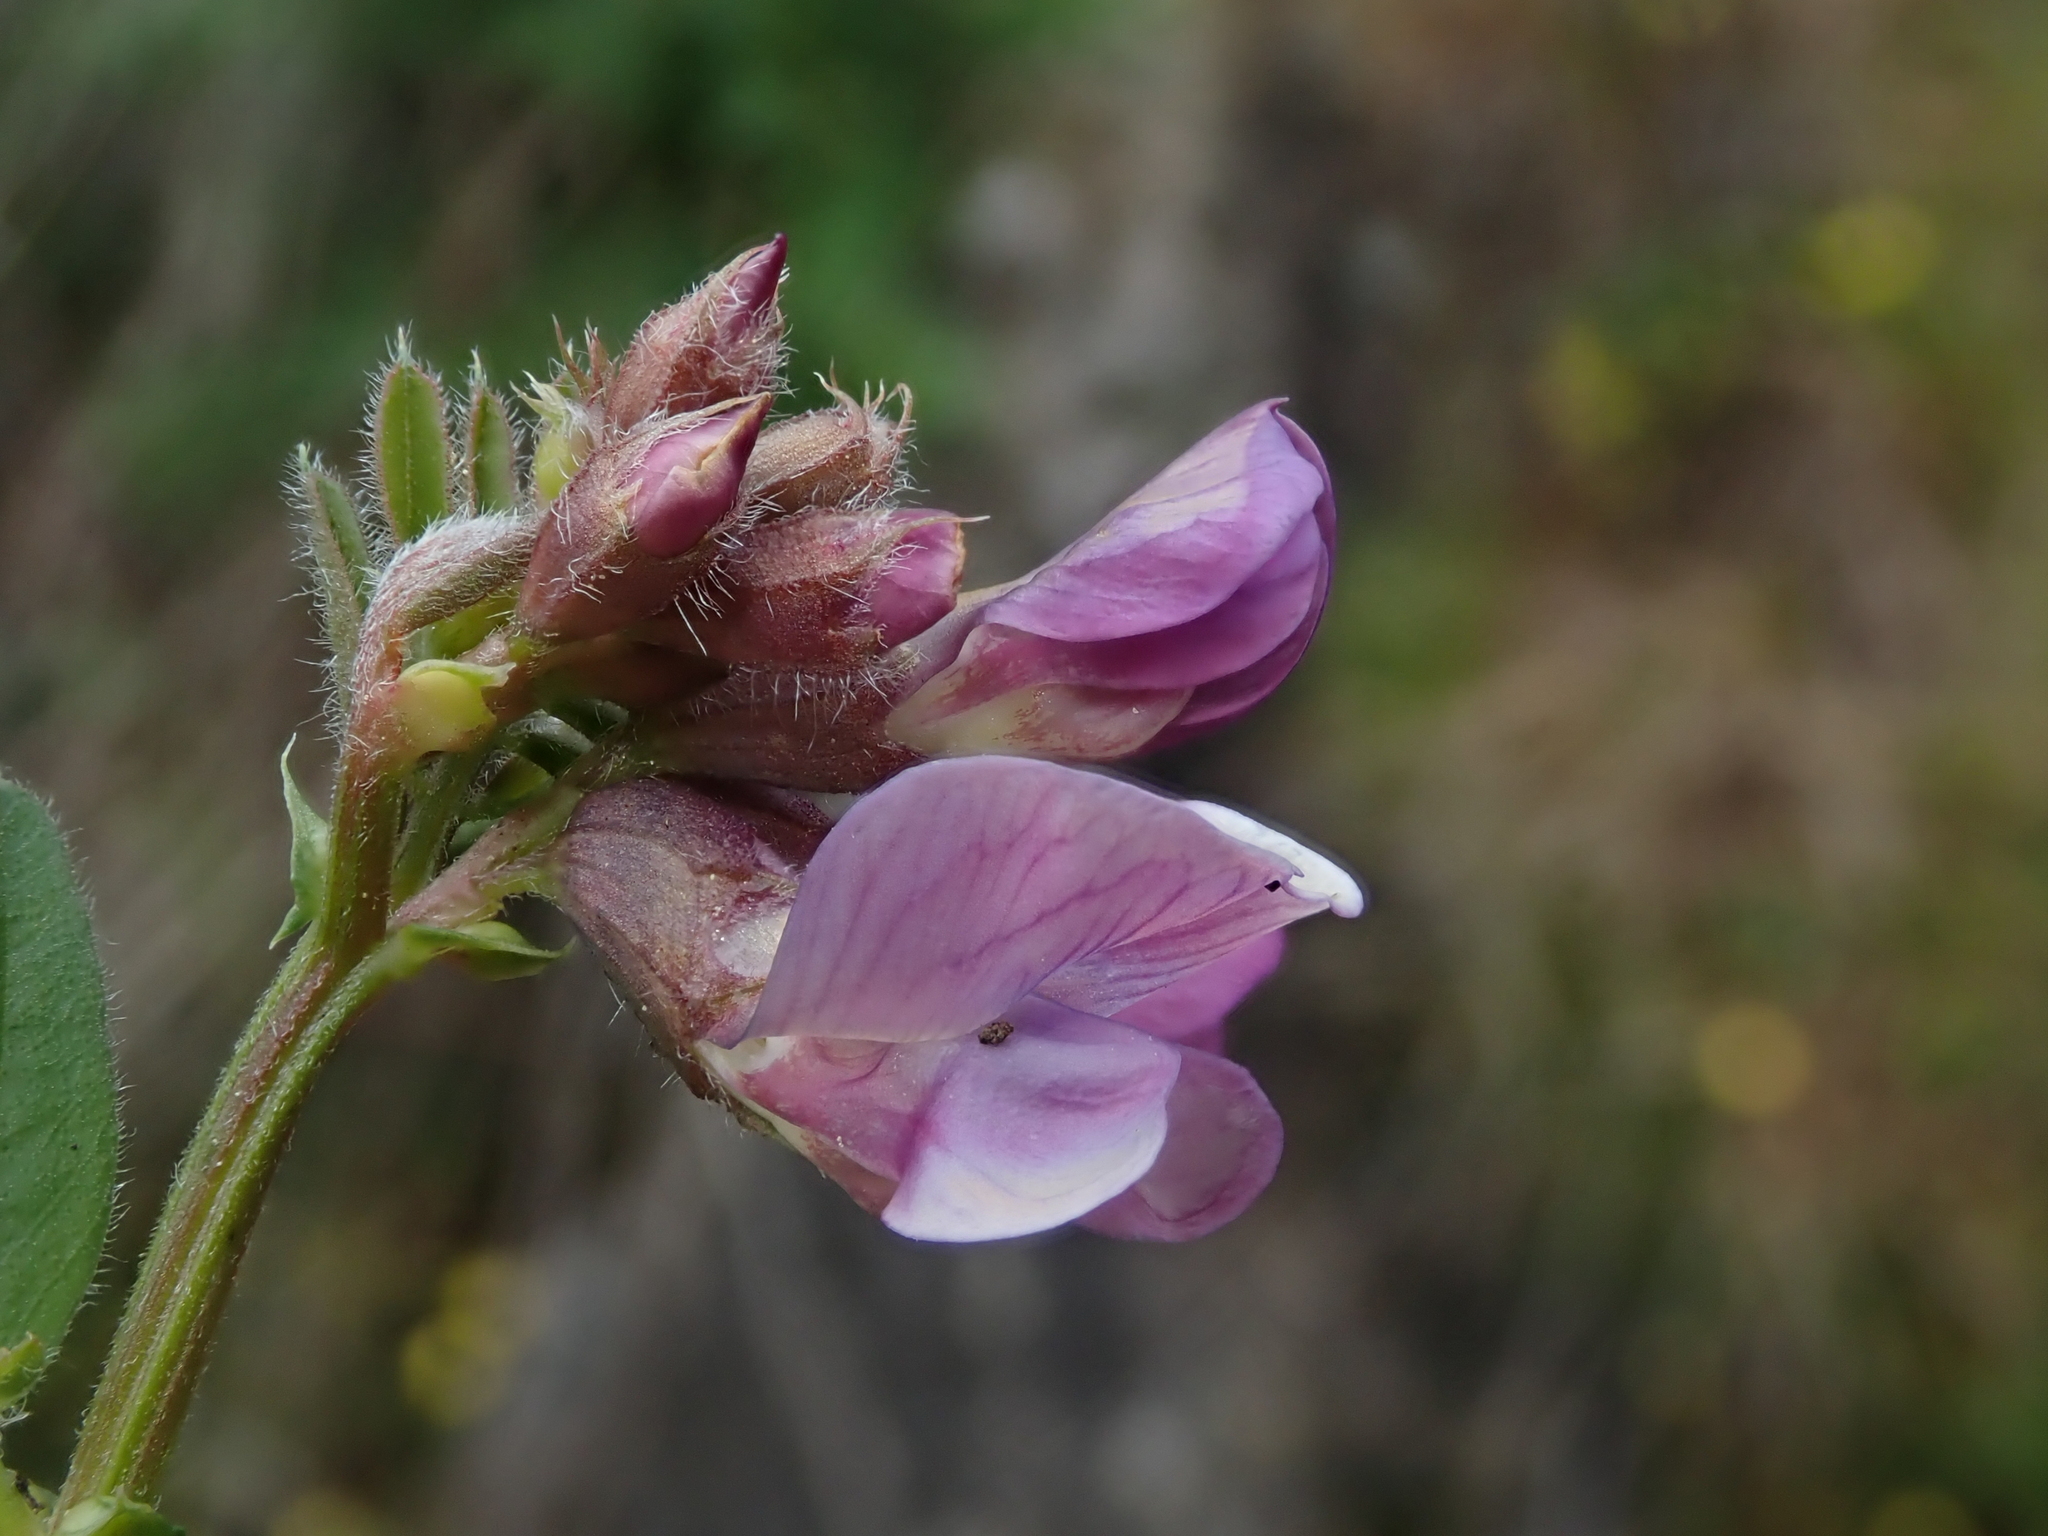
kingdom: Plantae
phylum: Tracheophyta
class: Magnoliopsida
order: Fabales
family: Fabaceae
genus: Vicia
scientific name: Vicia sepium
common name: Bush vetch
